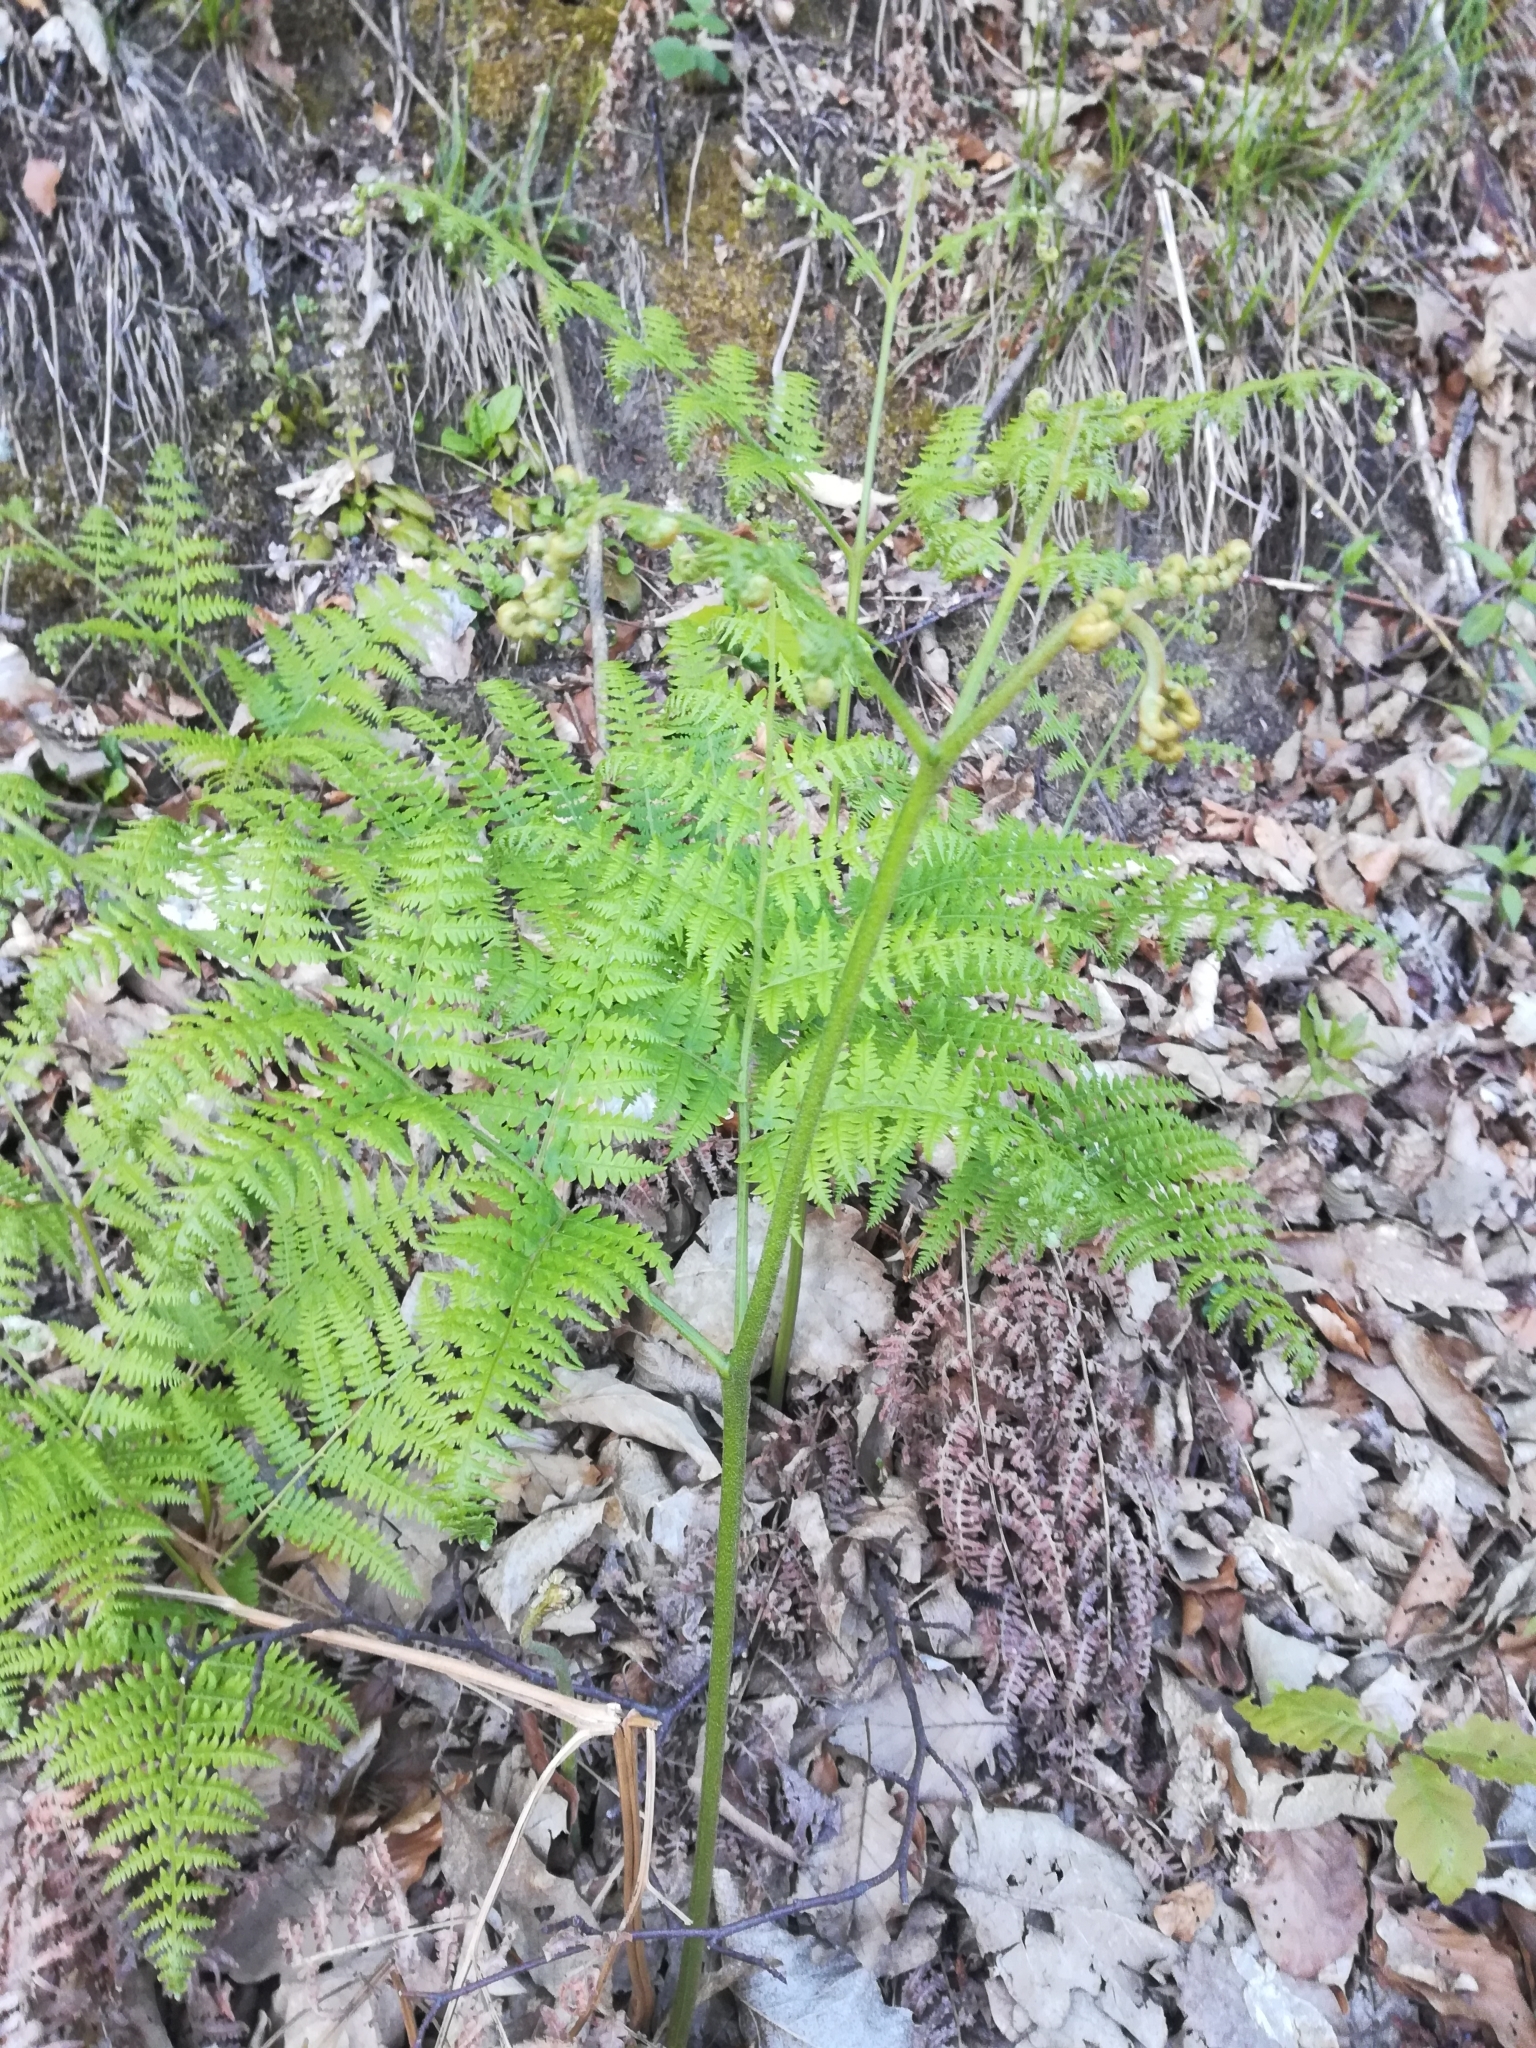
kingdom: Plantae
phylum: Tracheophyta
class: Polypodiopsida
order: Polypodiales
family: Dennstaedtiaceae
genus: Pteridium
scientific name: Pteridium aquilinum
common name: Bracken
